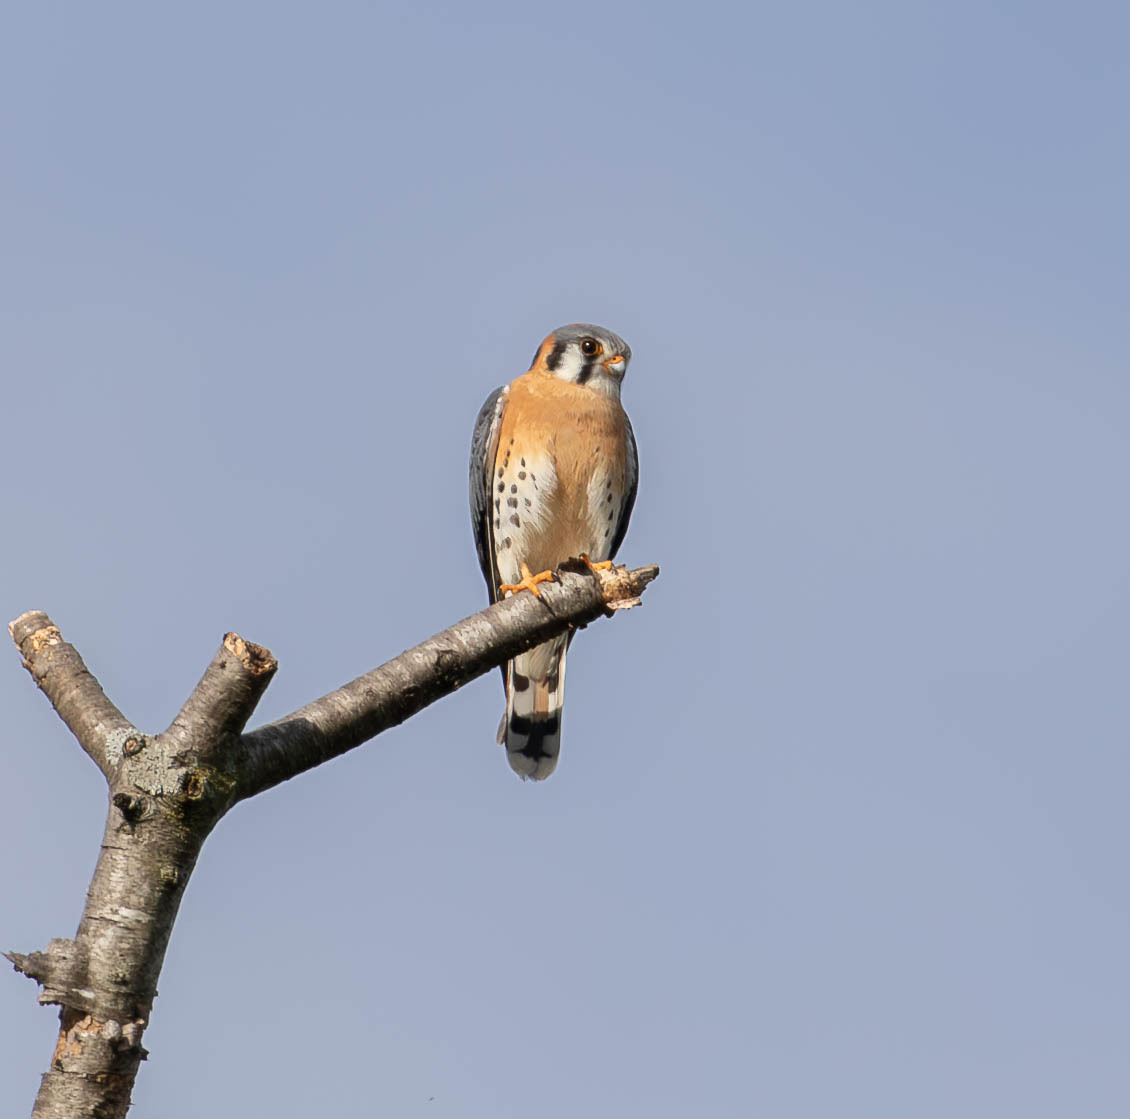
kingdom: Animalia
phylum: Chordata
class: Aves
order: Falconiformes
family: Falconidae
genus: Falco
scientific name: Falco sparverius
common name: American kestrel
